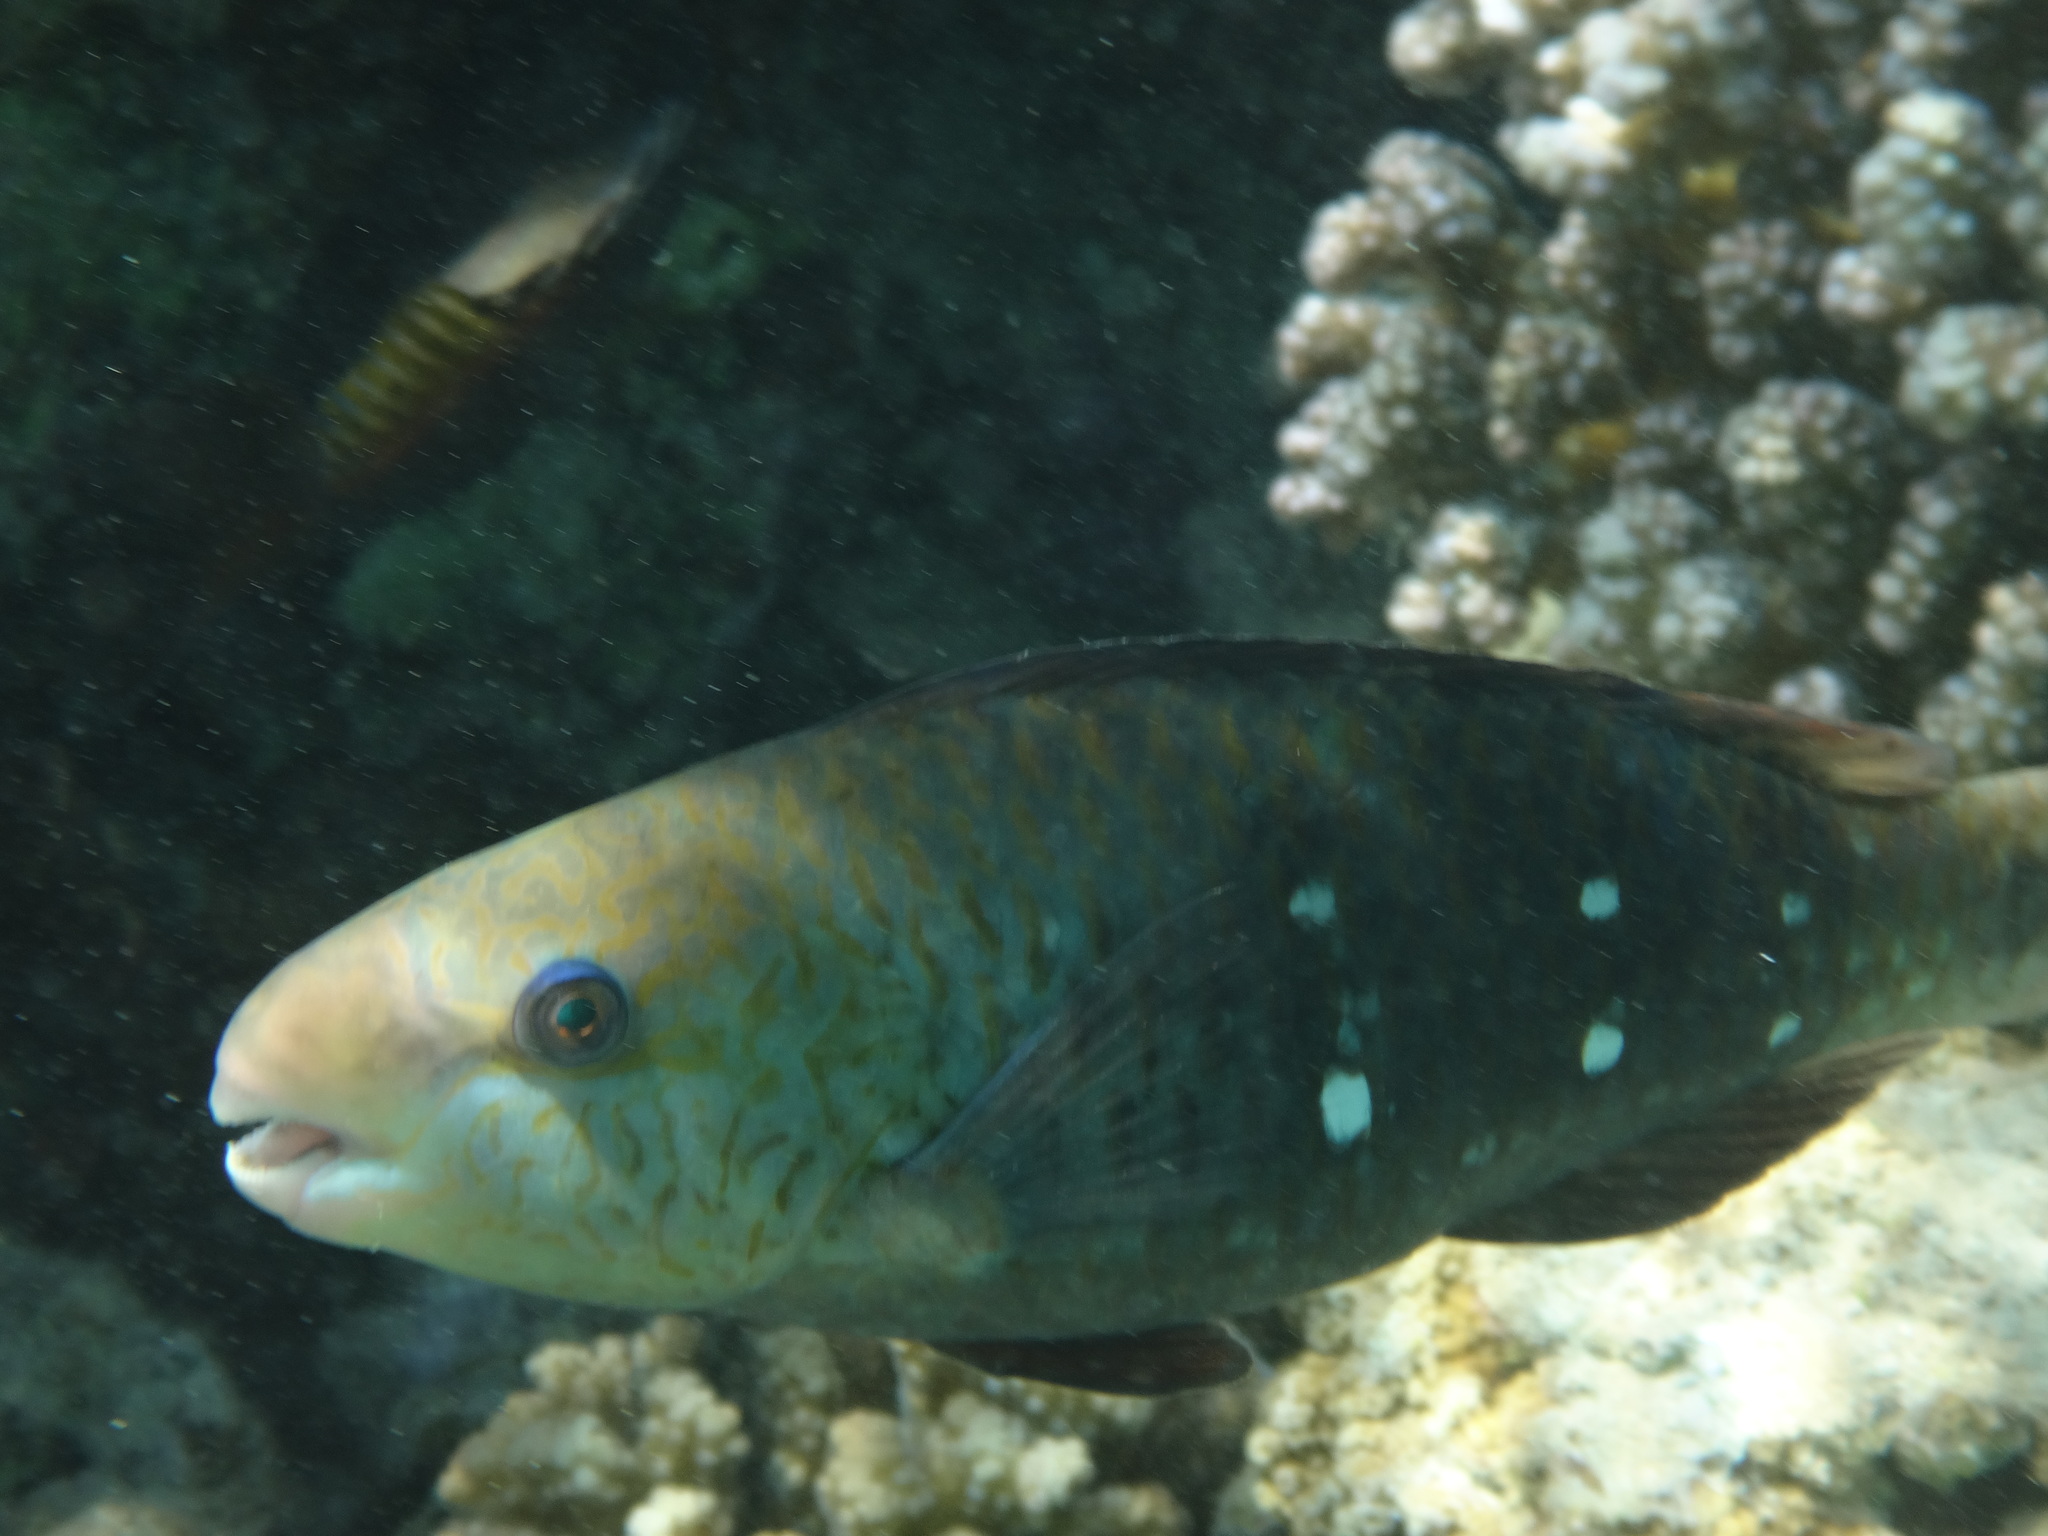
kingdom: Animalia
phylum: Chordata
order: Perciformes
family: Scaridae
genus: Chlorurus
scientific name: Chlorurus sordidus
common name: Bullethead parrotfish
